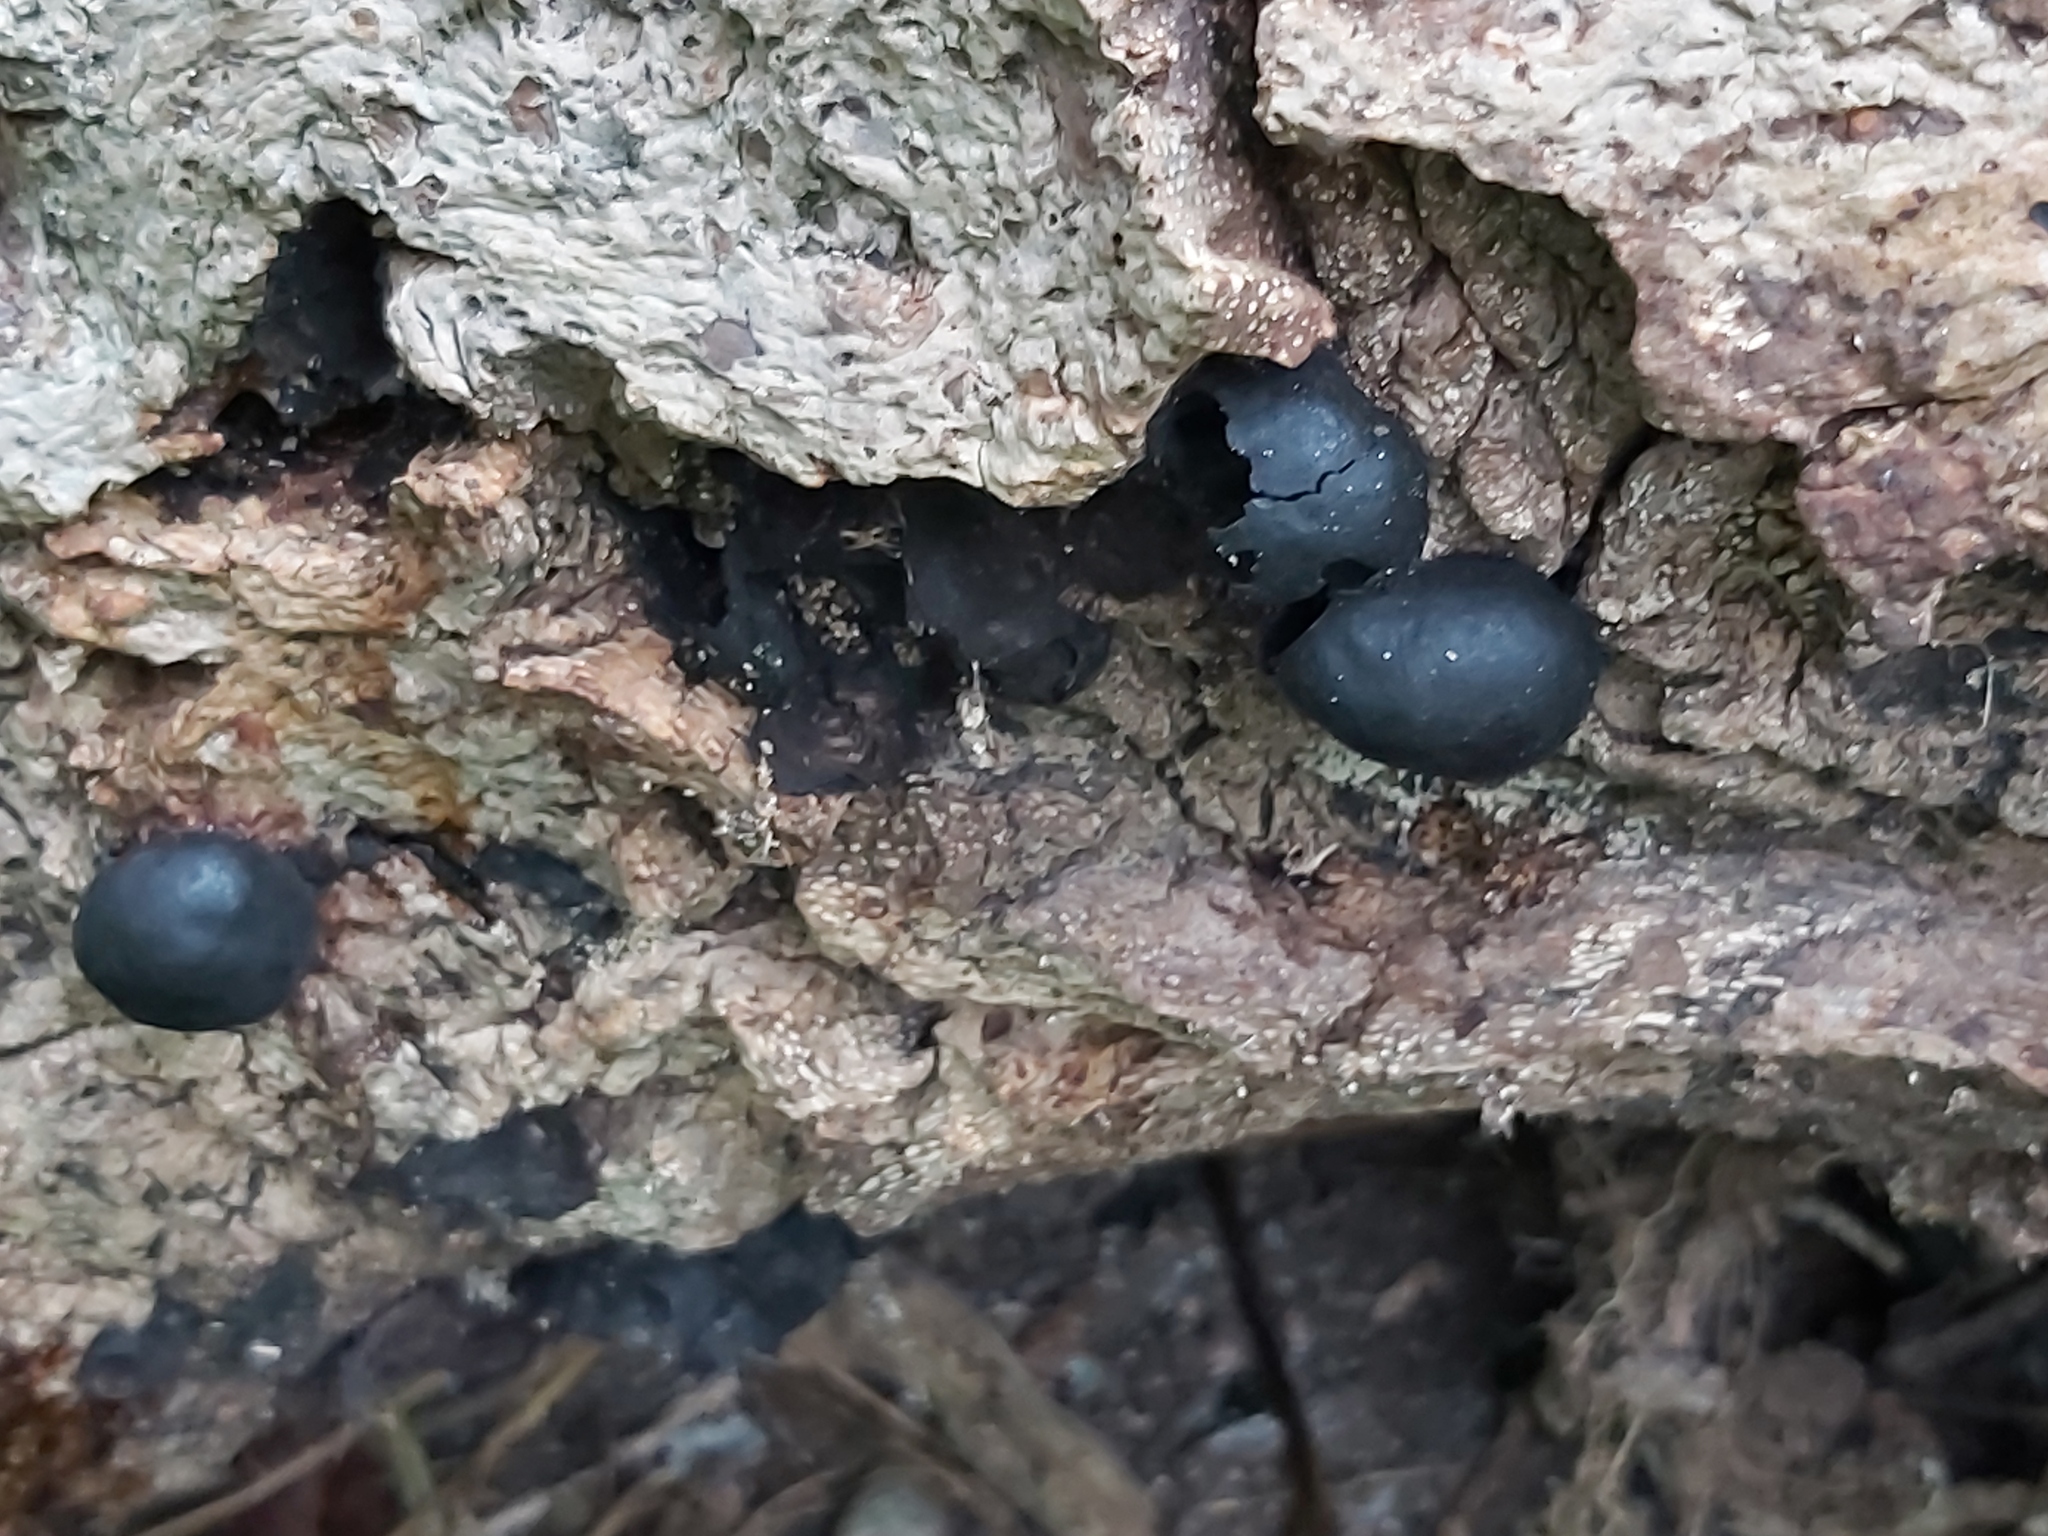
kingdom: Fungi
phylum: Ascomycota
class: Sordariomycetes
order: Xylariales
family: Hypoxylaceae
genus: Daldinia
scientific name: Daldinia concentrica
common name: Cramp balls
